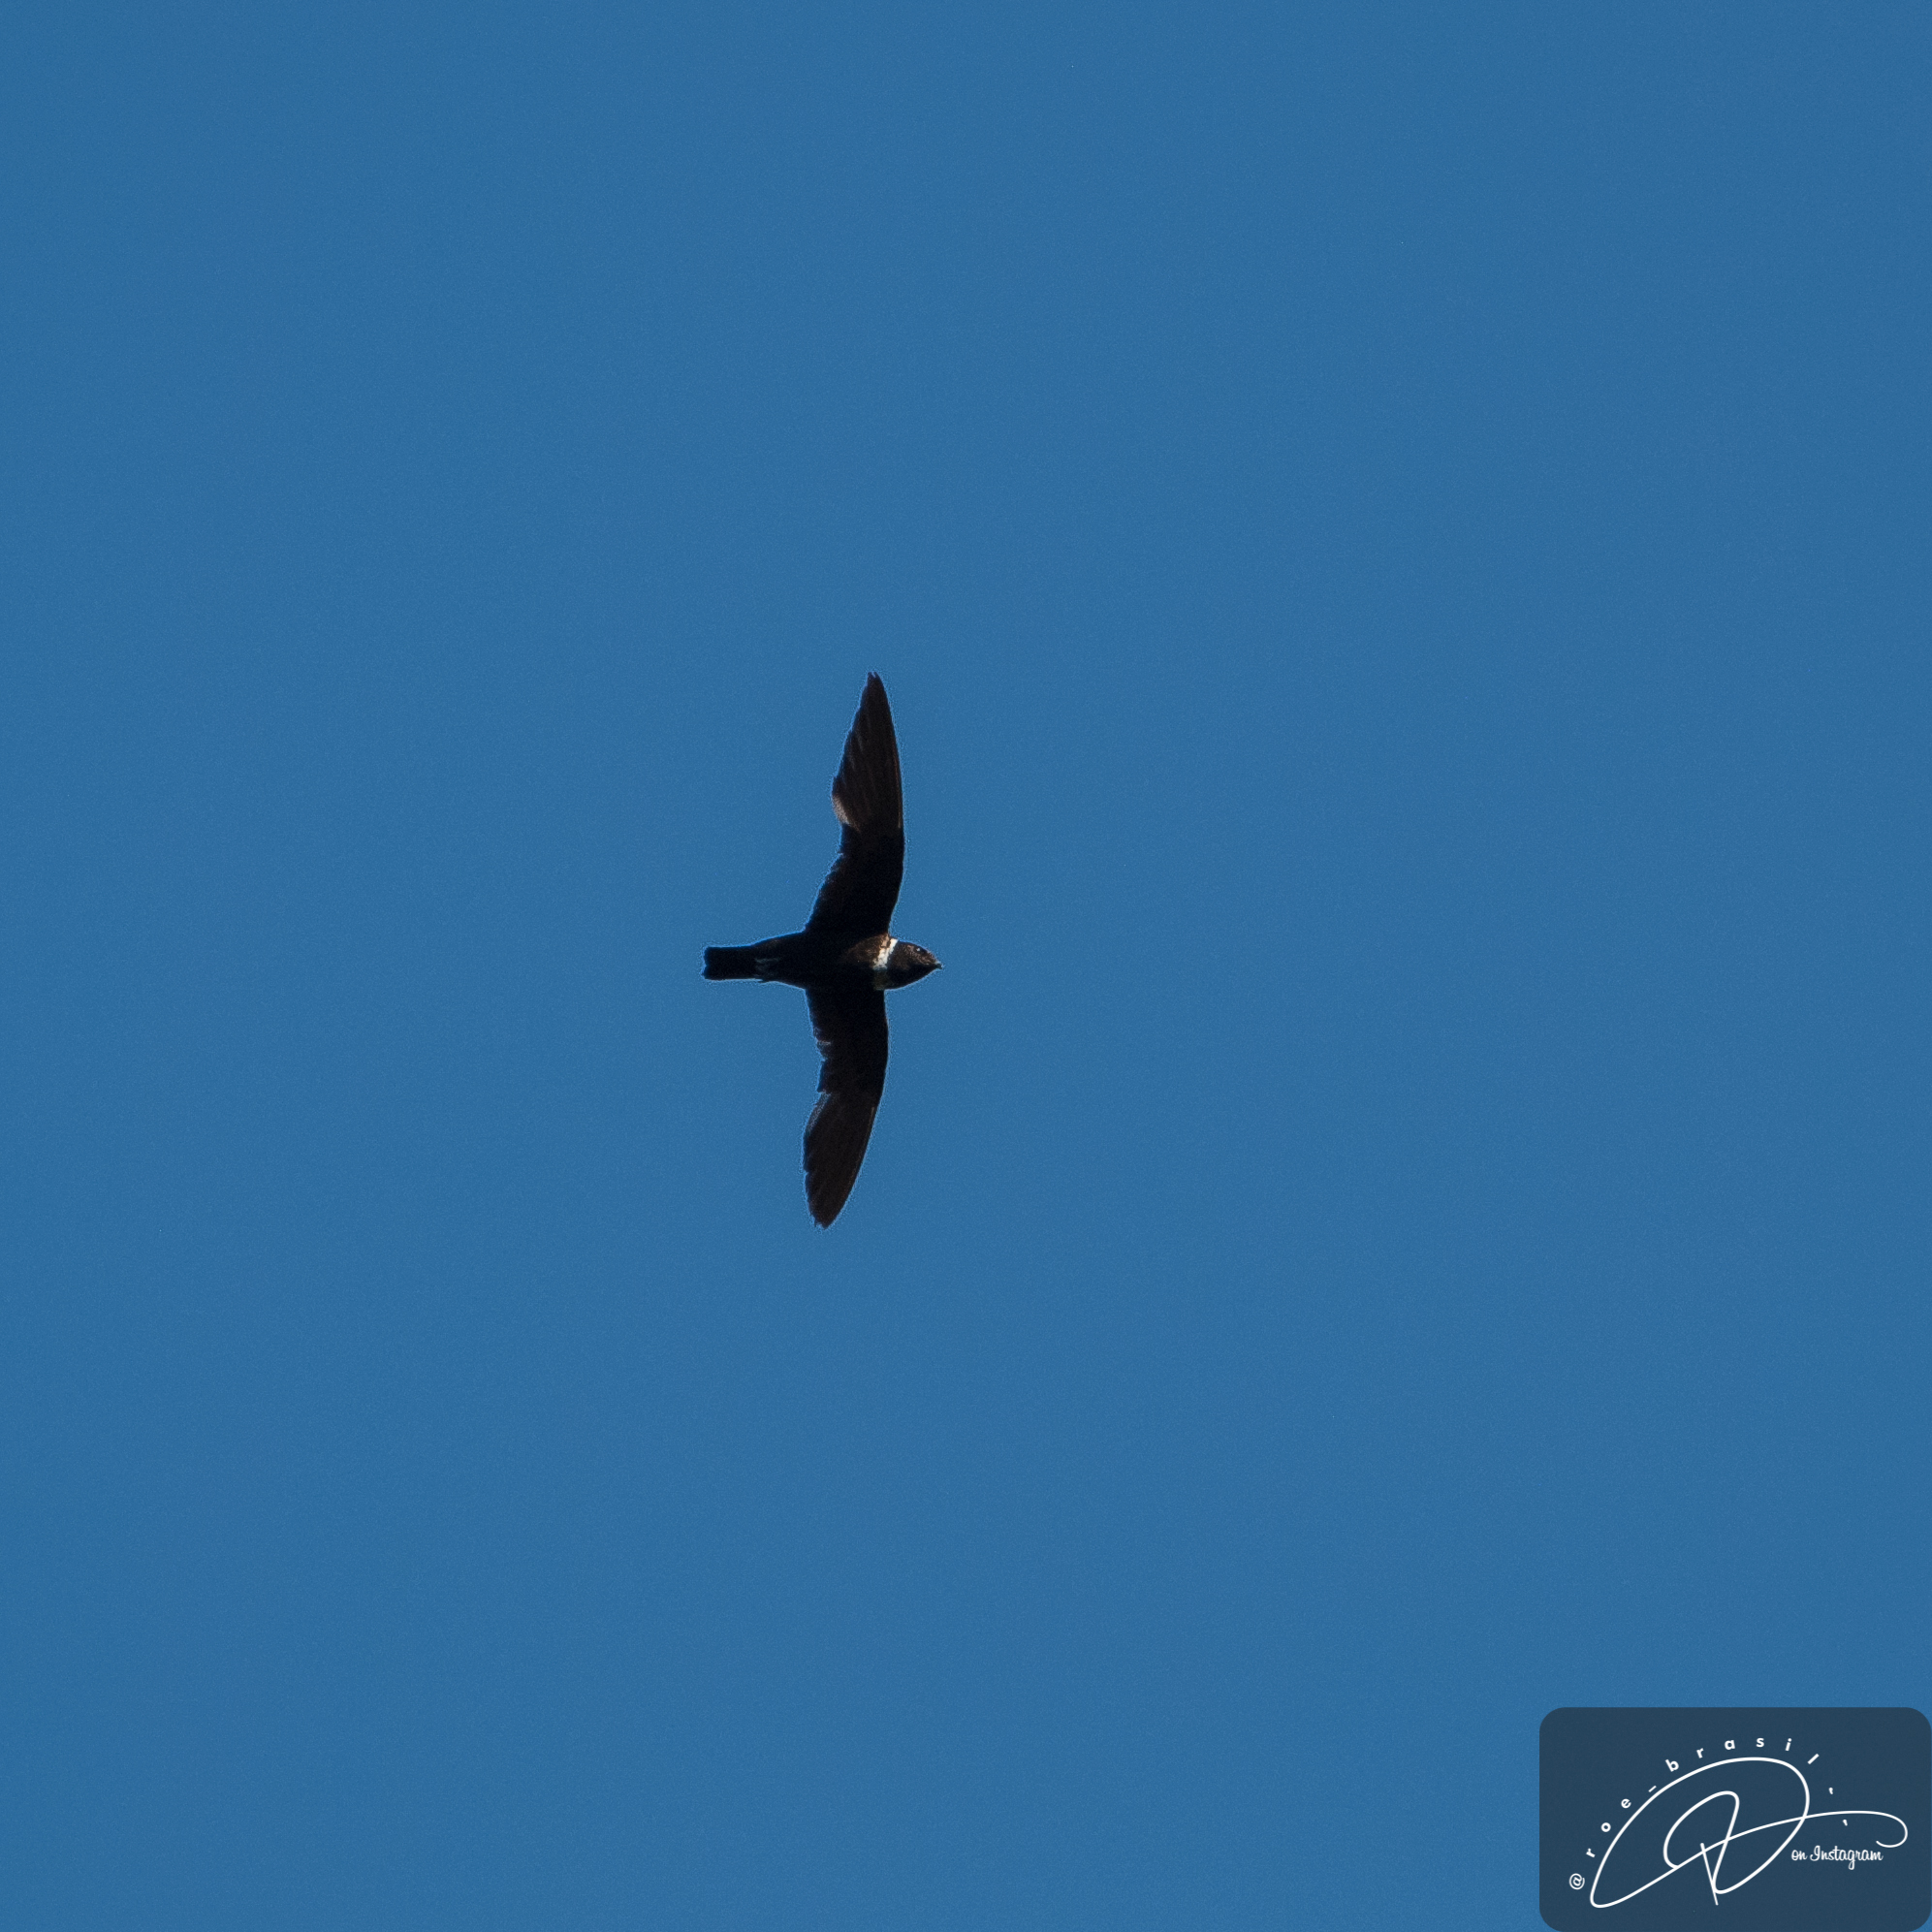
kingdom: Animalia
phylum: Chordata
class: Aves
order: Apodiformes
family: Apodidae
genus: Streptoprocne
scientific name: Streptoprocne zonaris
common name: White-collared swift
